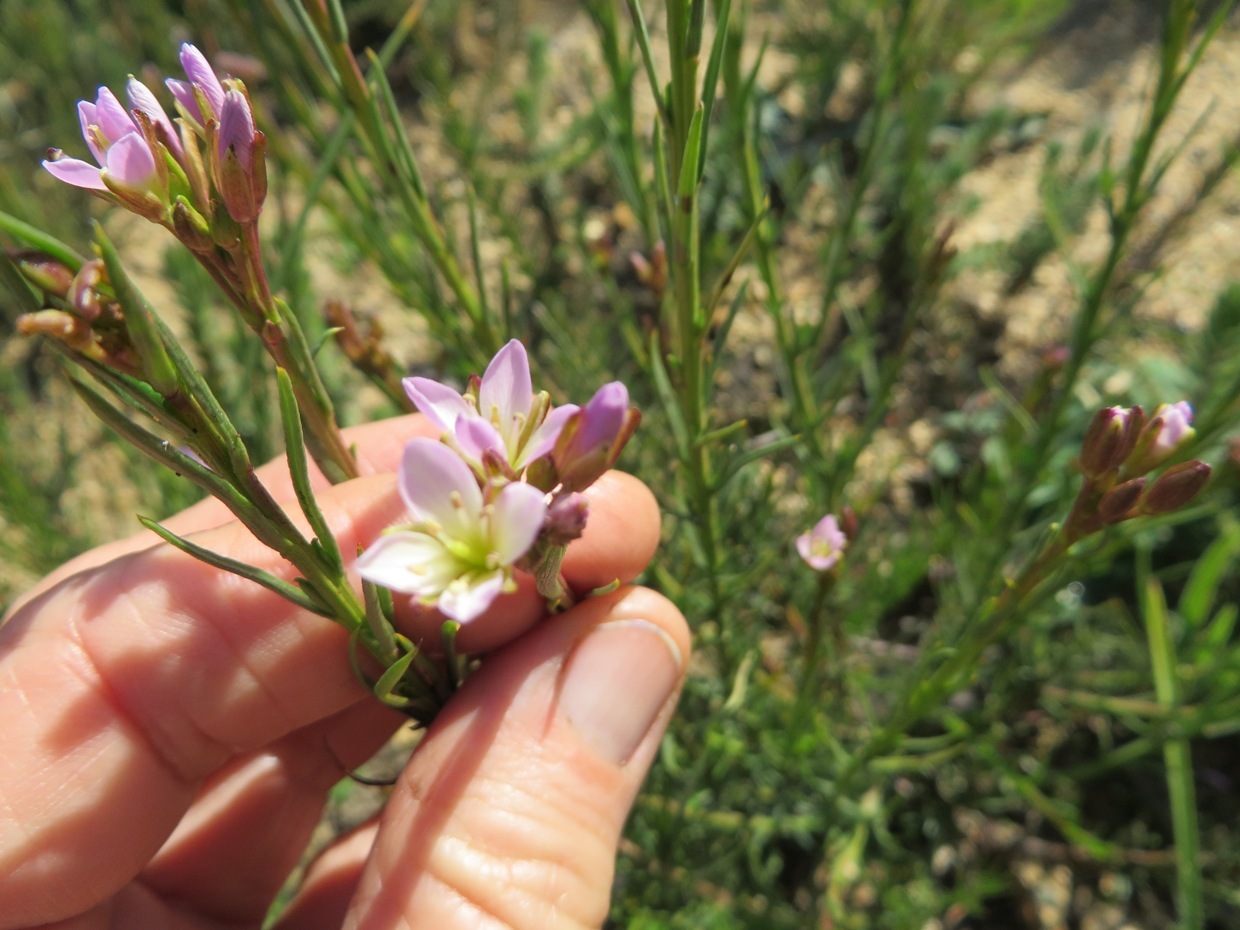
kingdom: Plantae
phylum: Tracheophyta
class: Magnoliopsida
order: Brassicales
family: Brassicaceae
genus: Heliophila
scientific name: Heliophila scoparia
